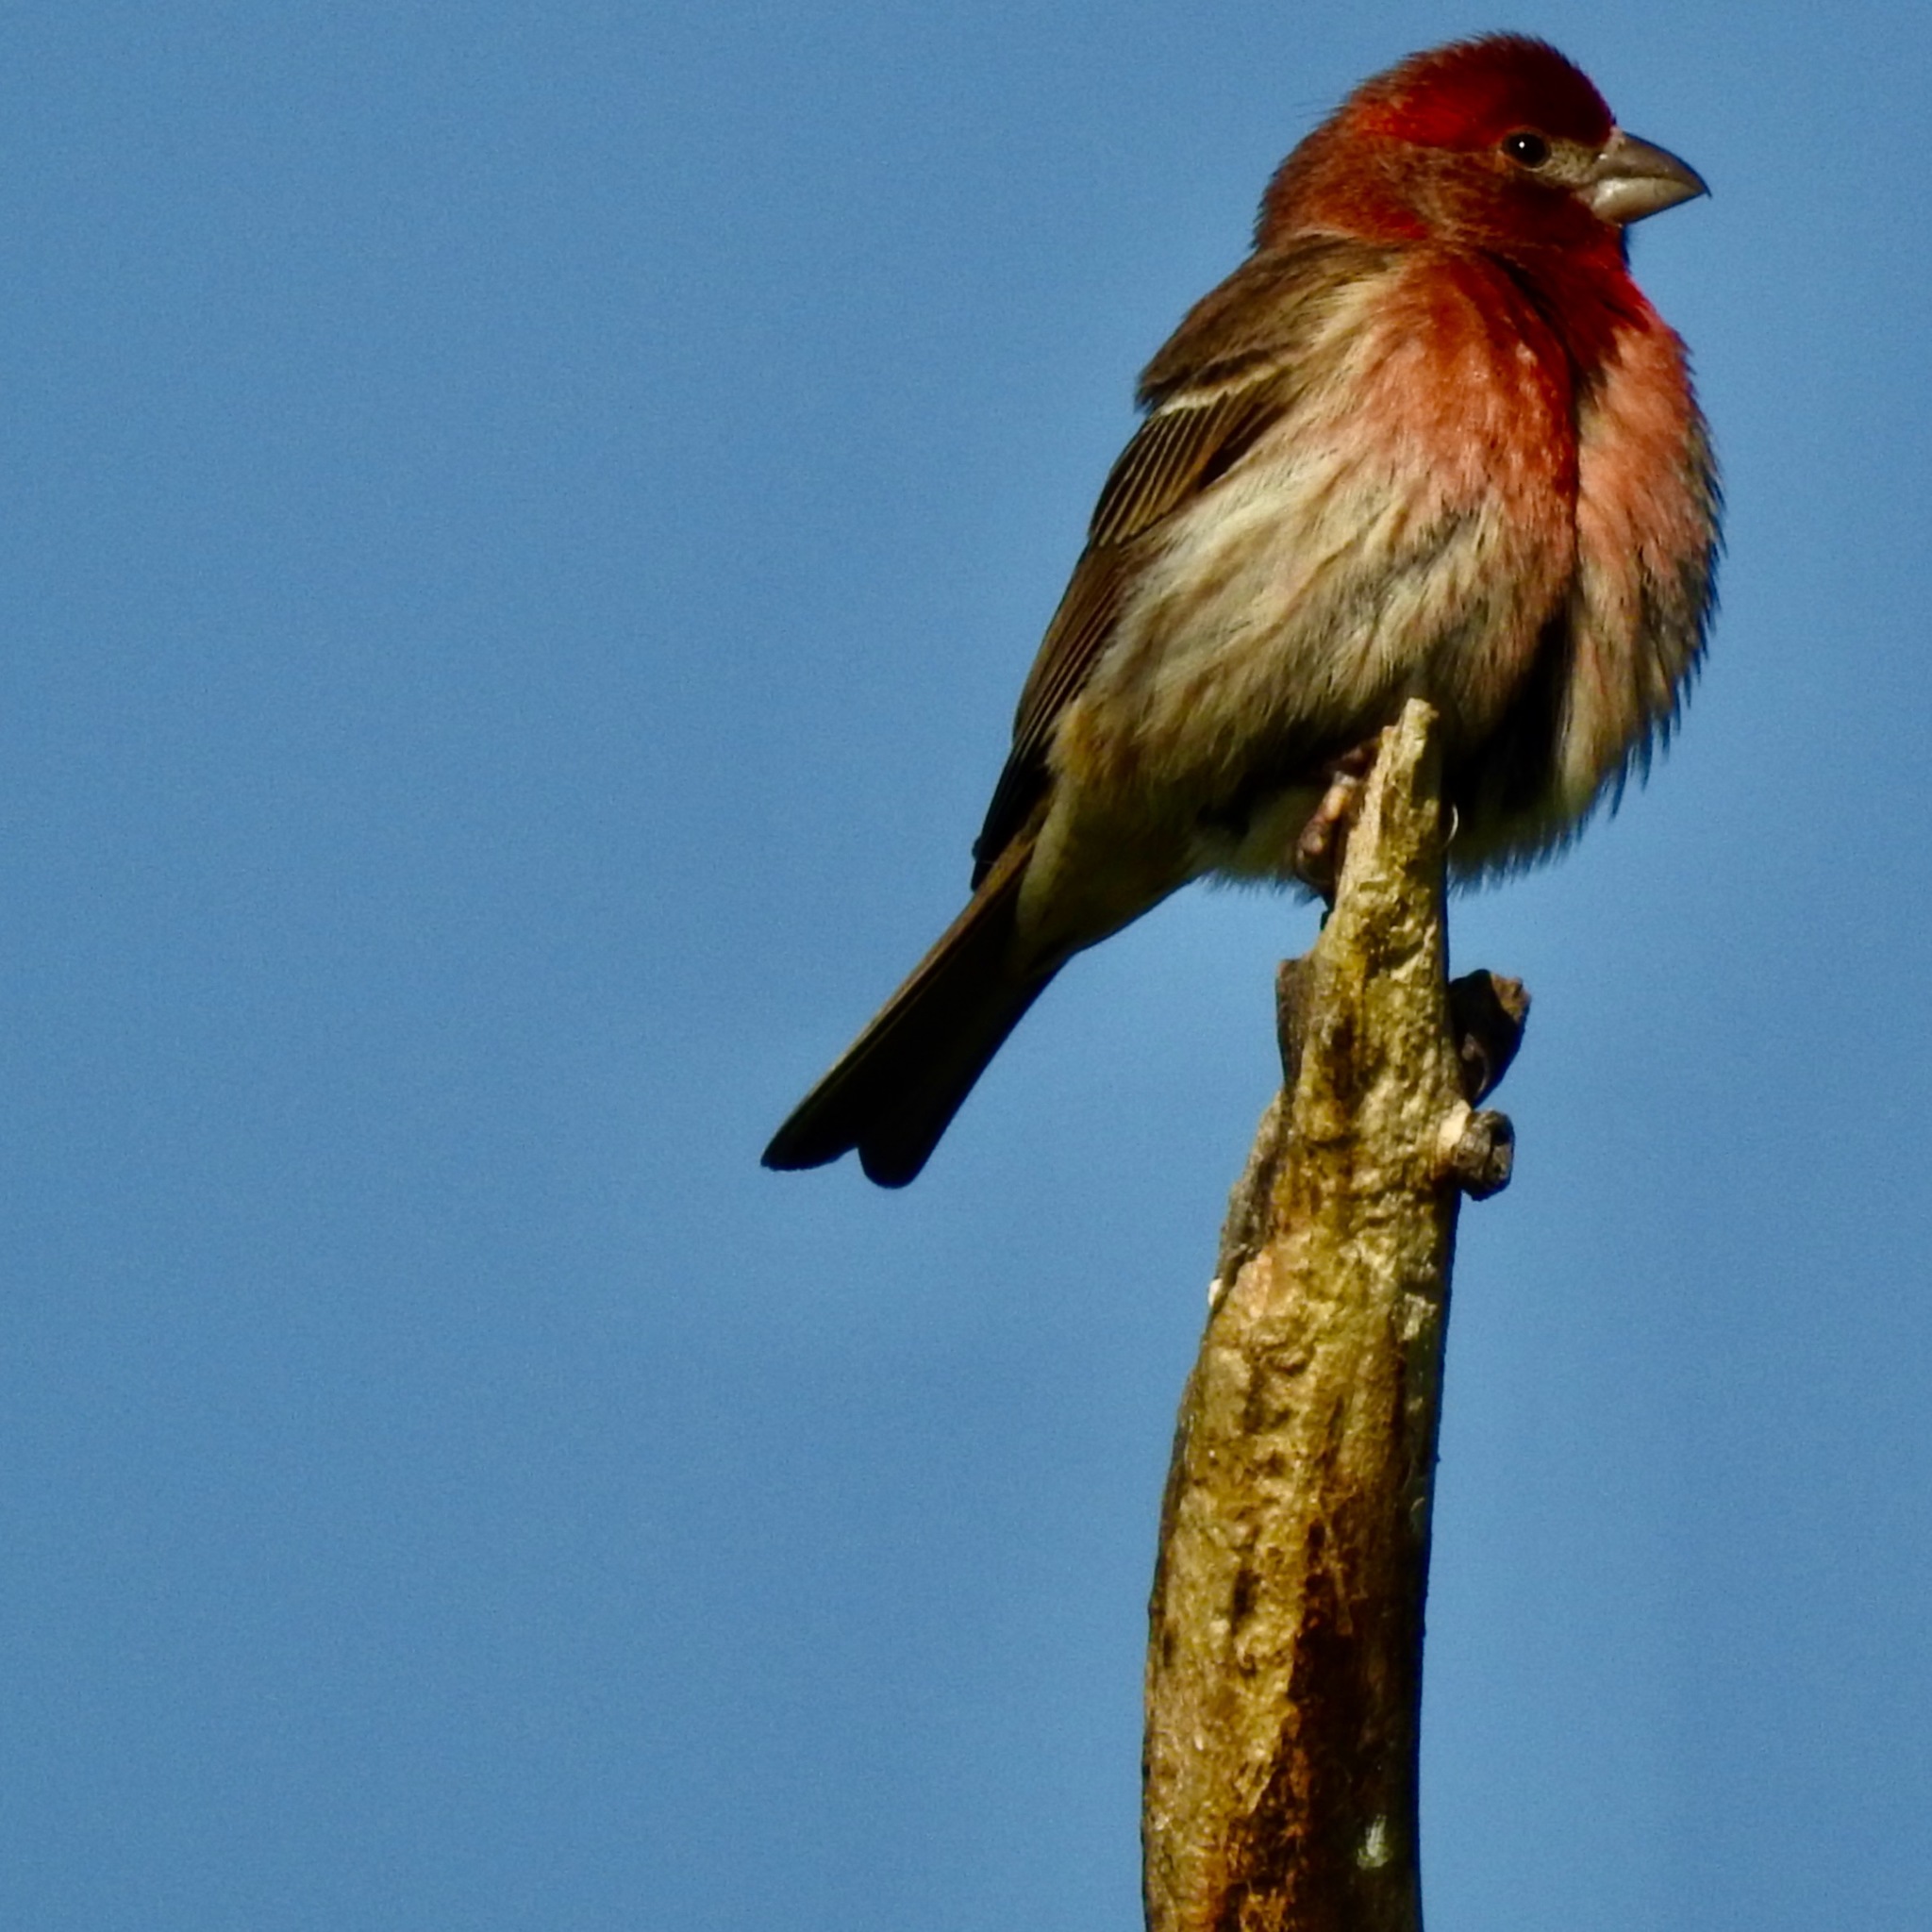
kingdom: Animalia
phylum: Chordata
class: Aves
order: Passeriformes
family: Fringillidae
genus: Haemorhous
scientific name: Haemorhous mexicanus
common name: House finch
